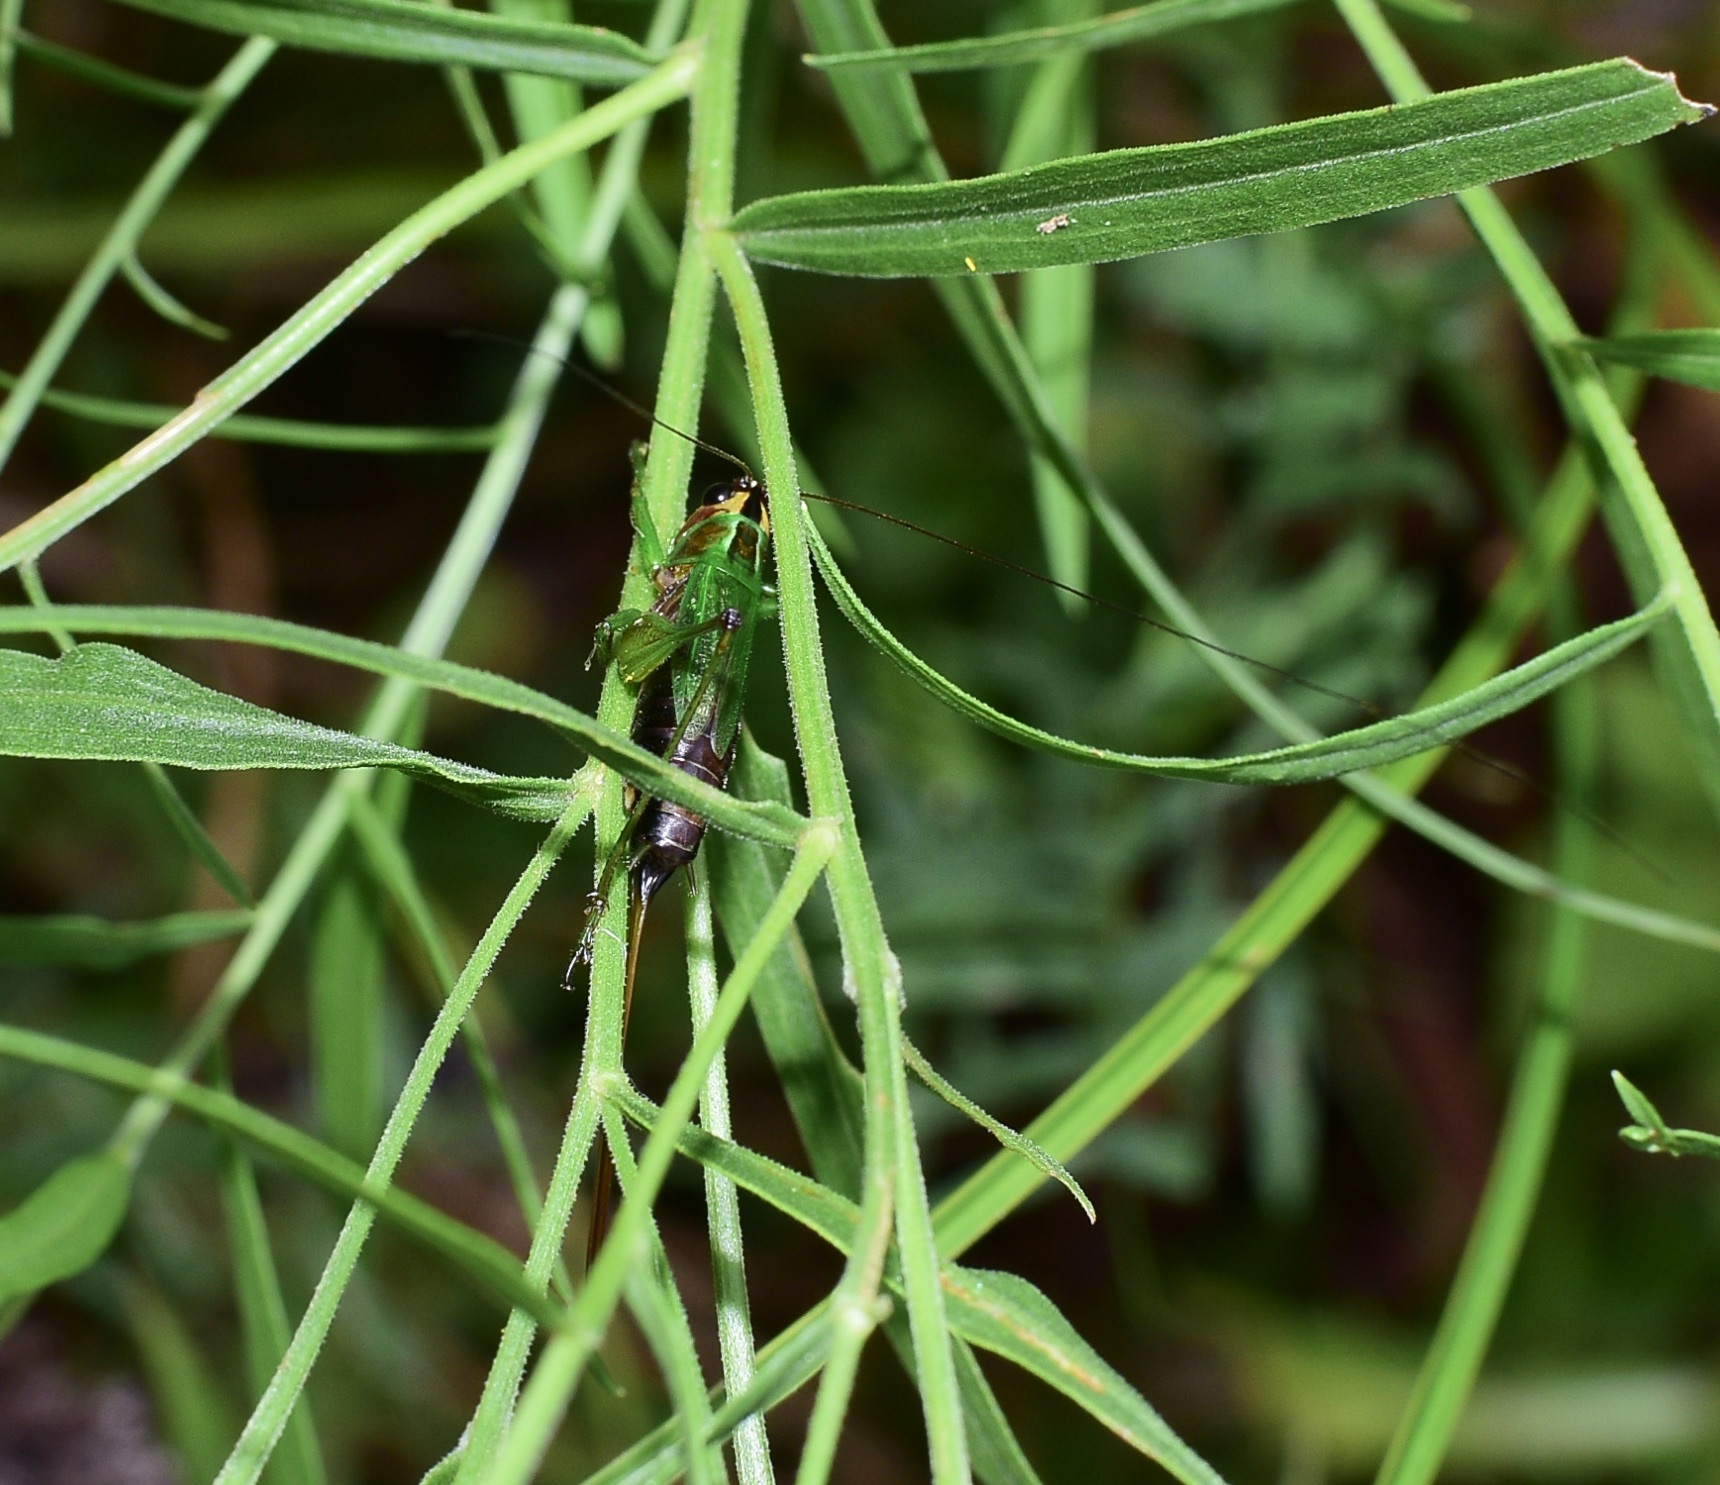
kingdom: Animalia
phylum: Arthropoda
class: Insecta
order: Orthoptera
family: Tettigoniidae
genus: Conocephalus
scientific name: Conocephalus nigropleurum
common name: Black-sided meadow katydid
